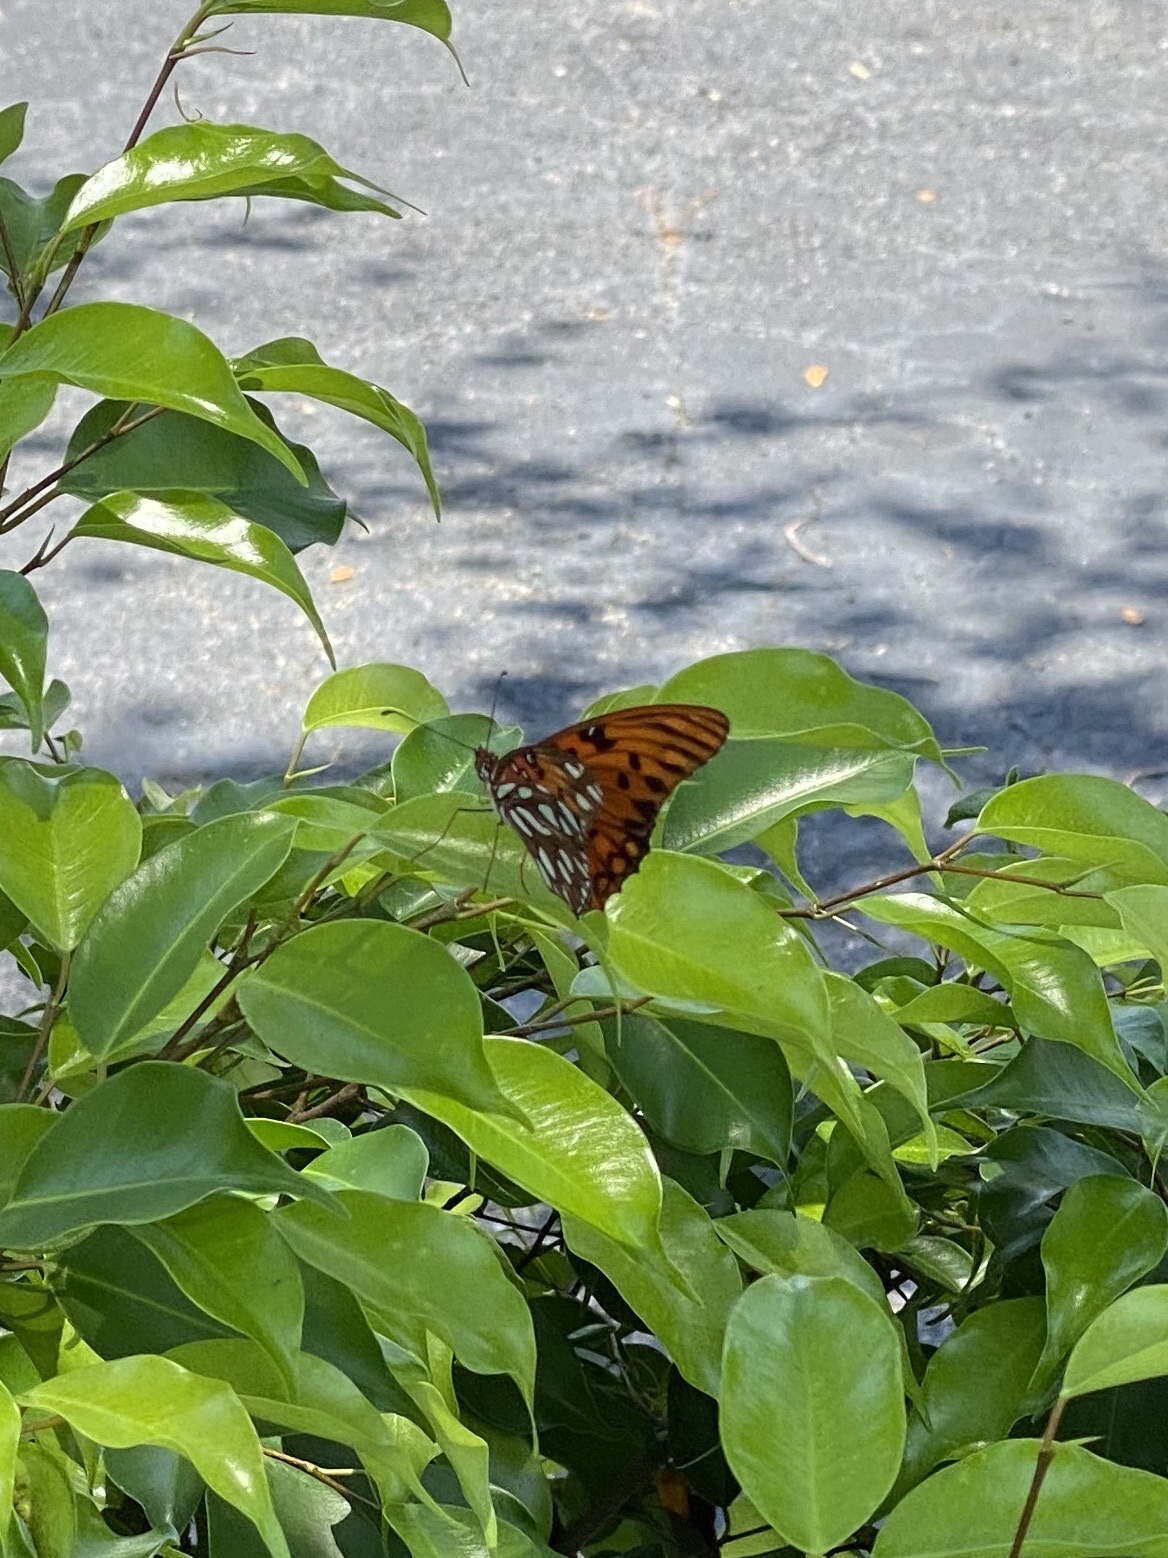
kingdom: Animalia
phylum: Arthropoda
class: Insecta
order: Lepidoptera
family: Nymphalidae
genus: Dione
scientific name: Dione vanillae
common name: Gulf fritillary
